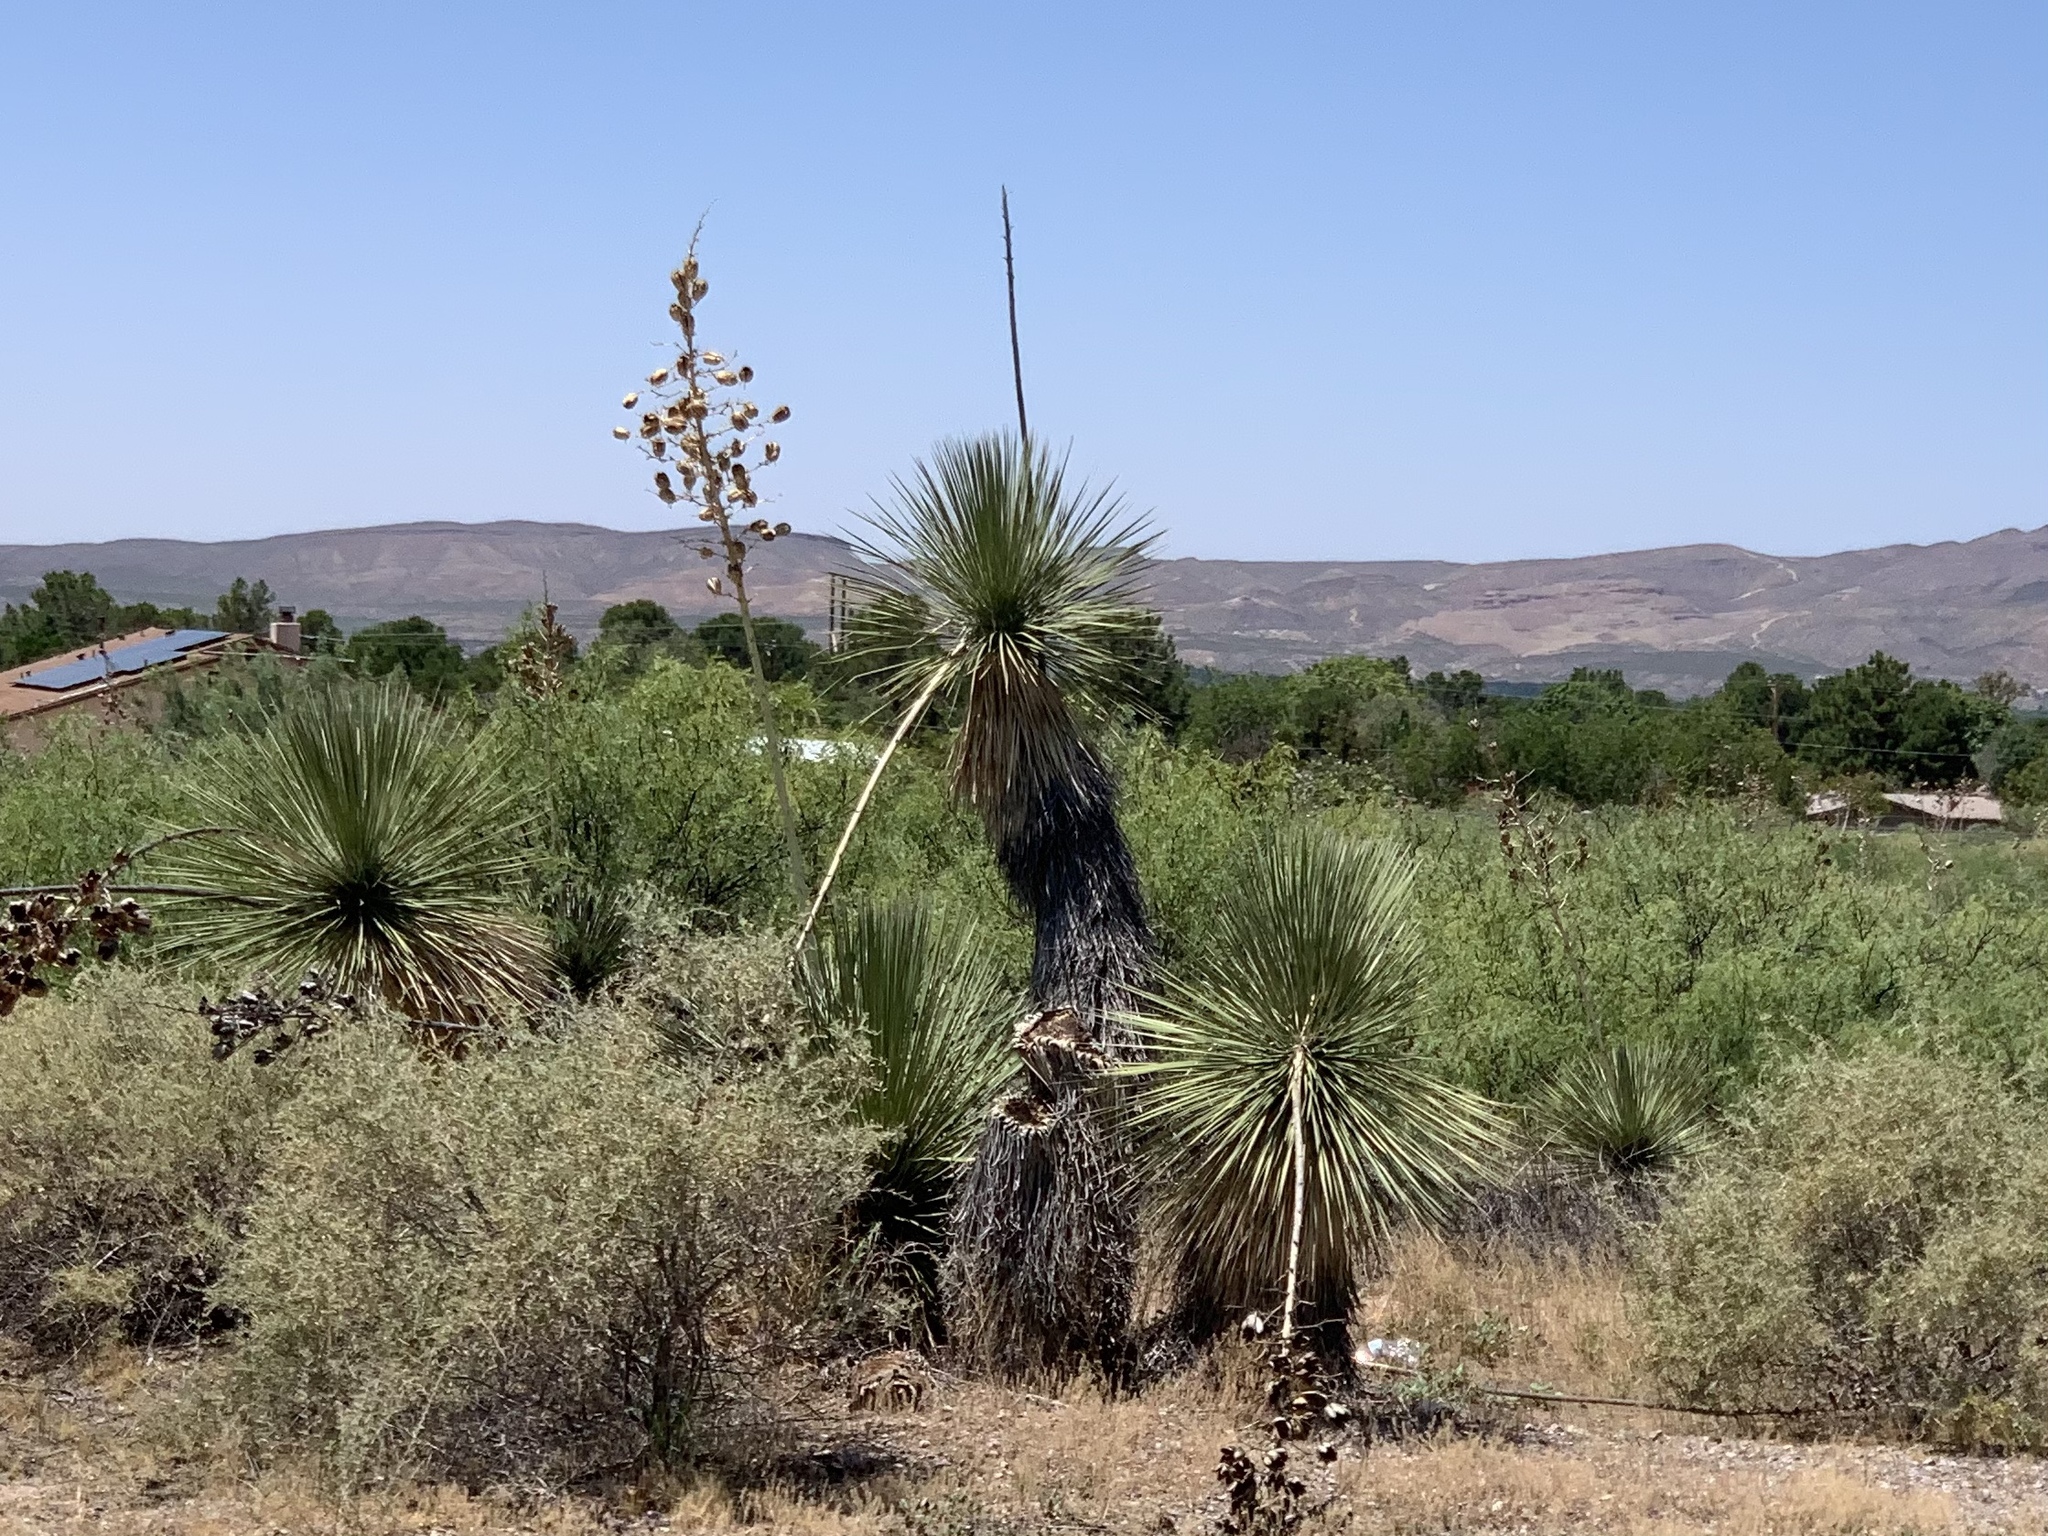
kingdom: Plantae
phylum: Tracheophyta
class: Liliopsida
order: Asparagales
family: Asparagaceae
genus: Yucca
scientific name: Yucca elata
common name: Palmella
